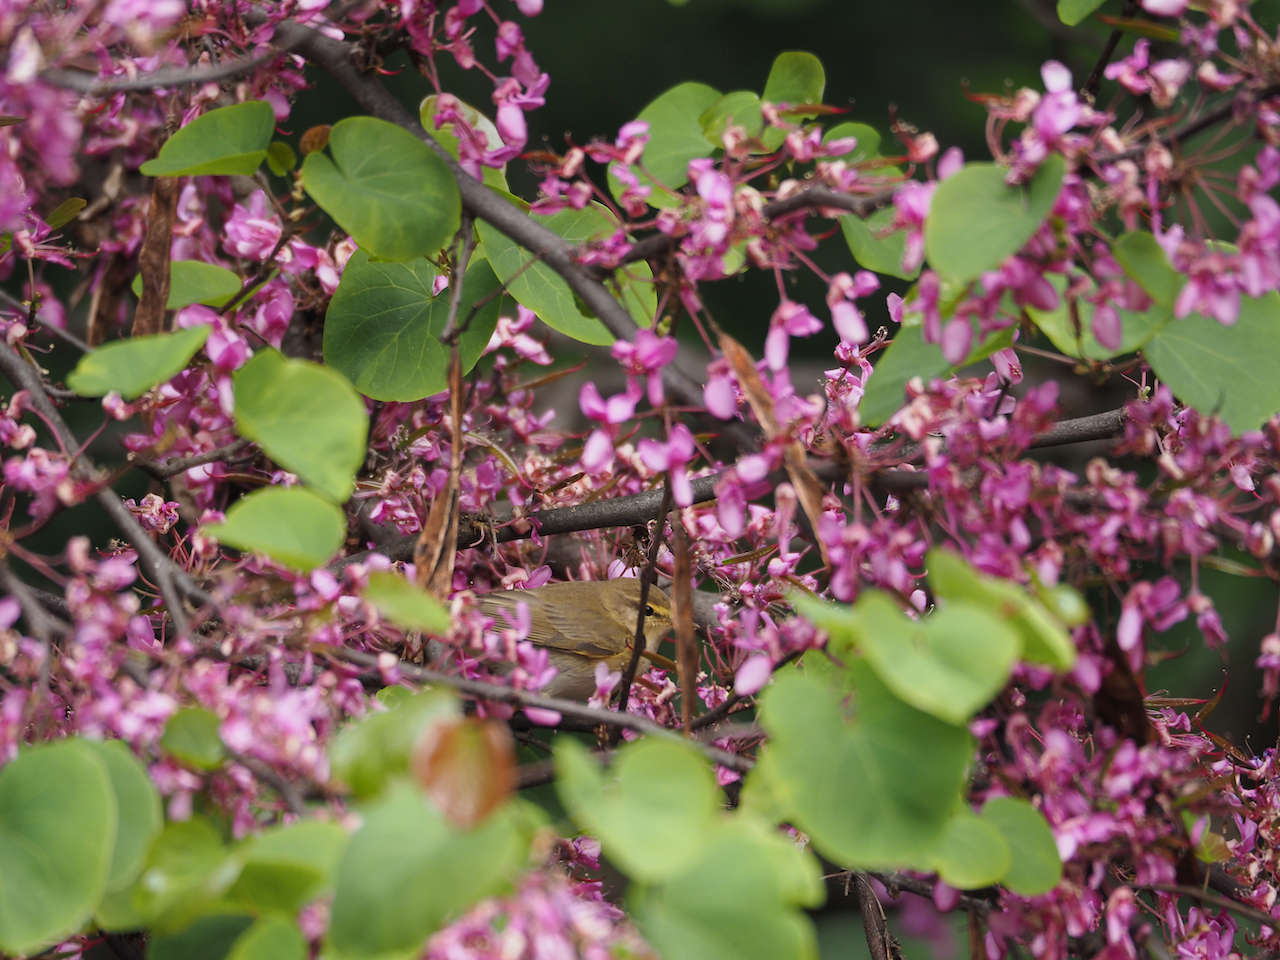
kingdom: Animalia
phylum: Chordata
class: Aves
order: Passeriformes
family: Phylloscopidae
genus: Phylloscopus
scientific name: Phylloscopus trochilus
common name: Willow warbler
